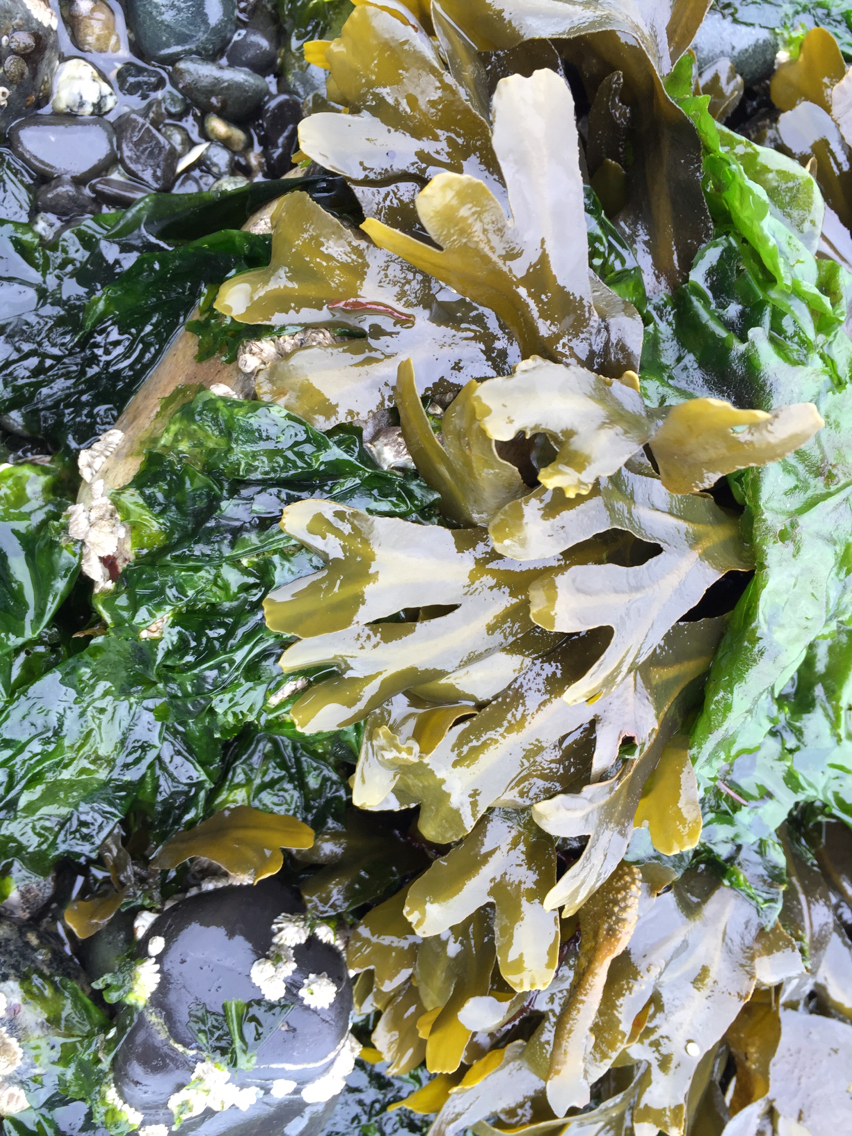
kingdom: Chromista
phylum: Ochrophyta
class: Phaeophyceae
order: Fucales
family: Fucaceae
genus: Fucus
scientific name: Fucus distichus
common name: Rockweed
